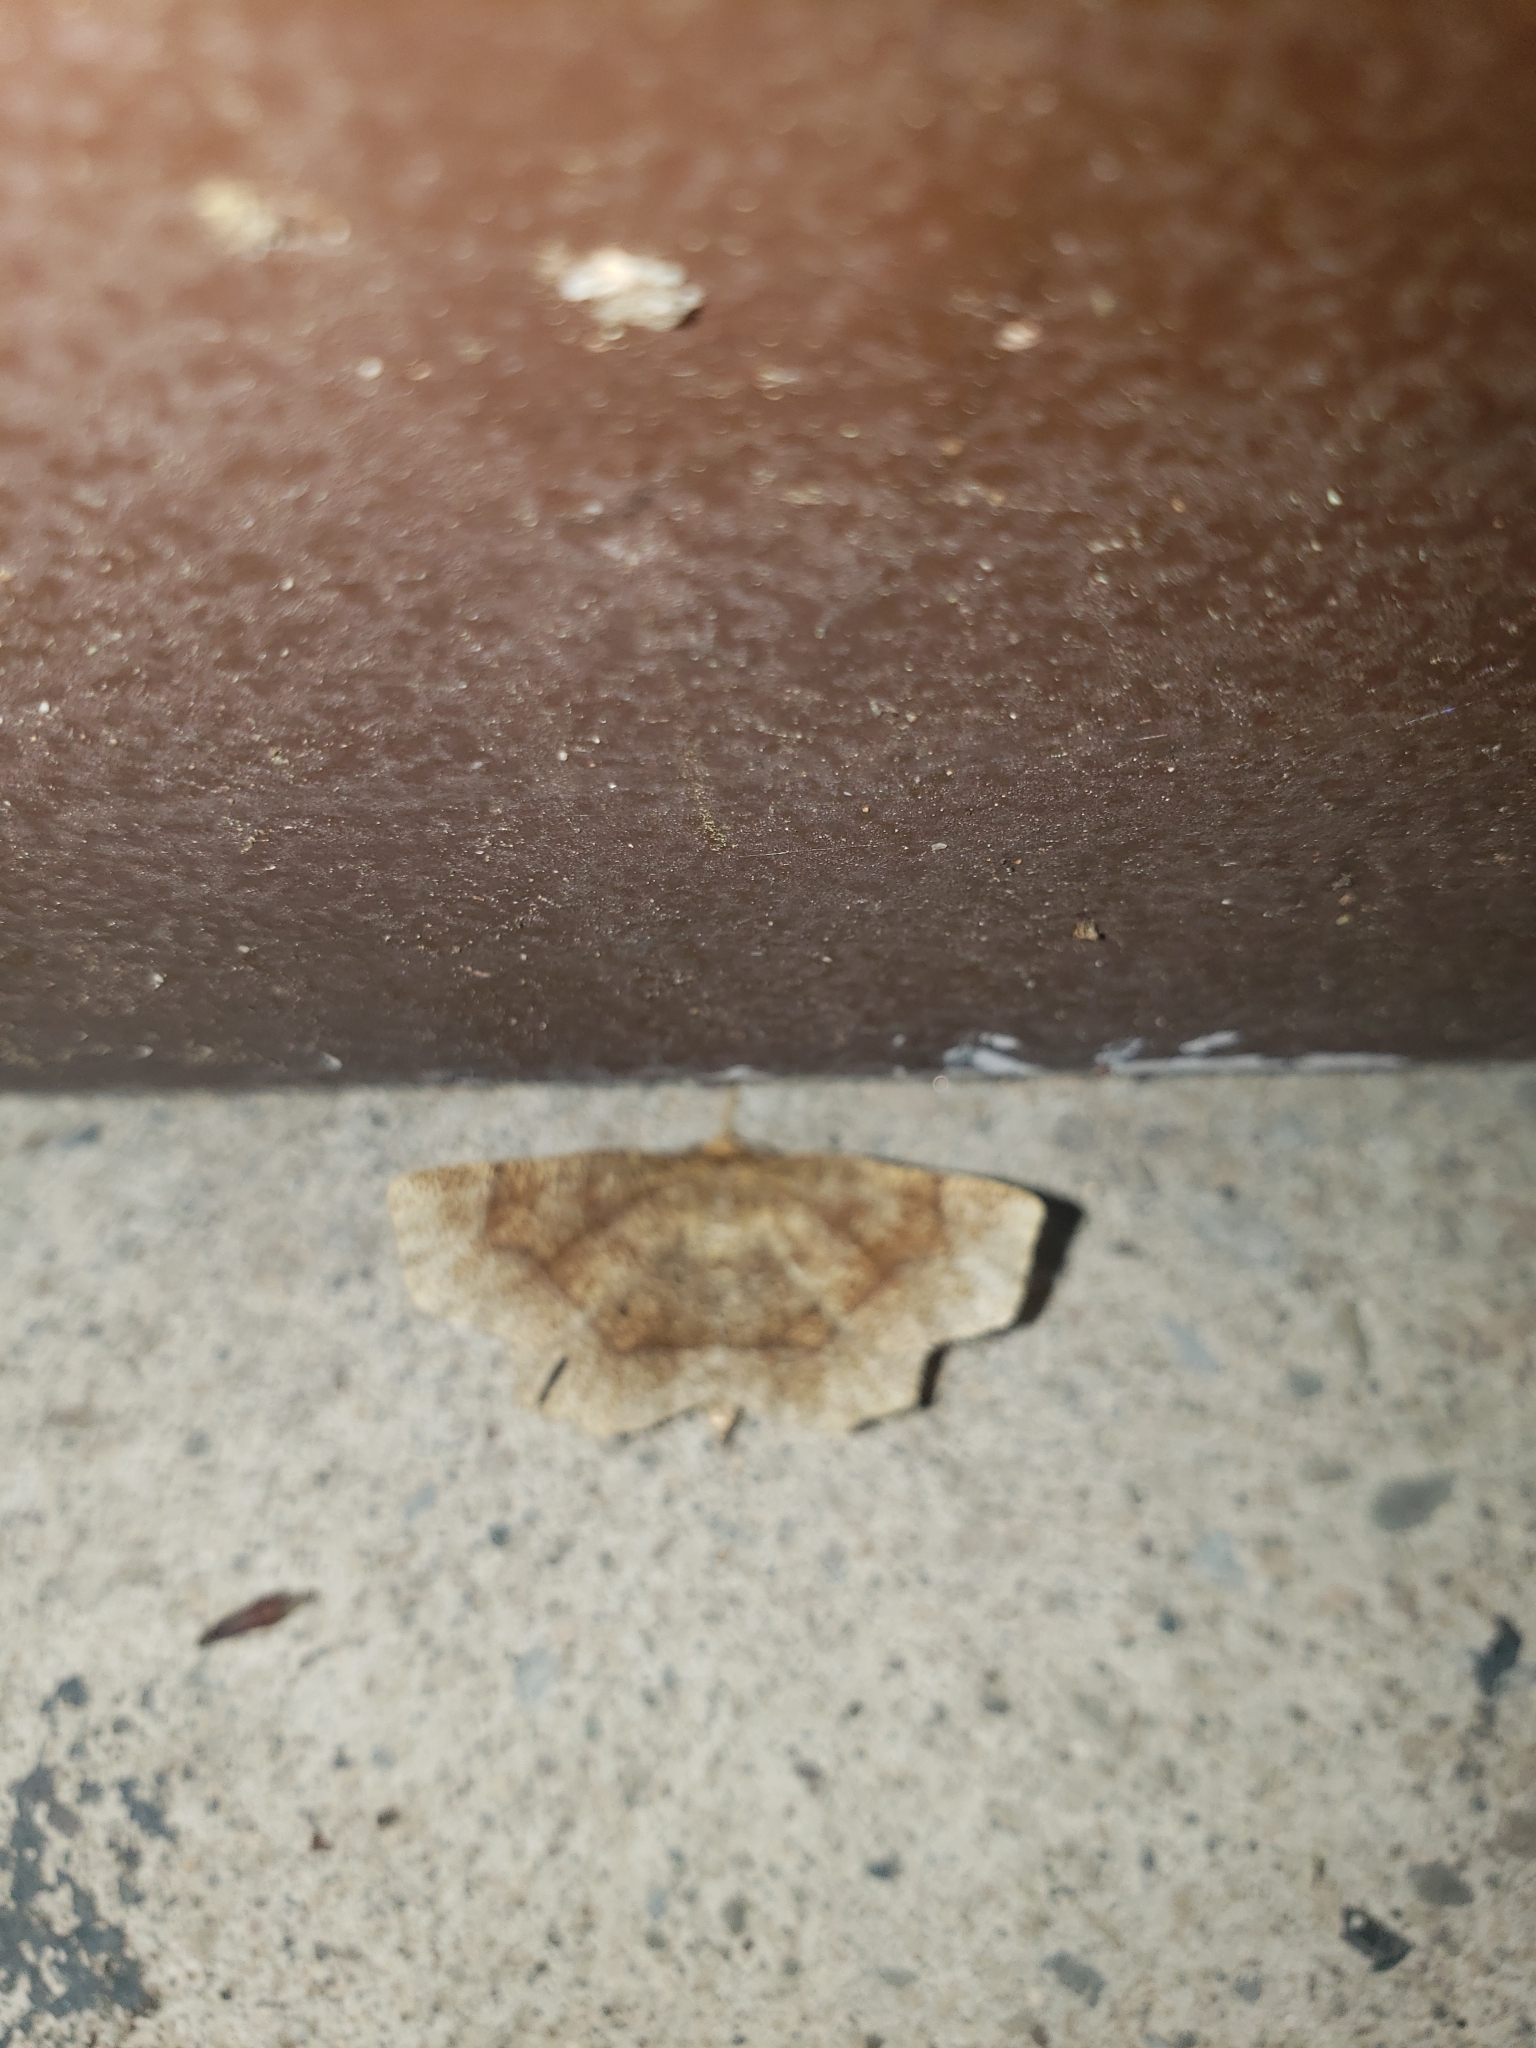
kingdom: Animalia
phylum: Arthropoda
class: Insecta
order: Lepidoptera
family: Geometridae
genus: Metarranthis
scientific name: Metarranthis hypochraria
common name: Common metarranthis
